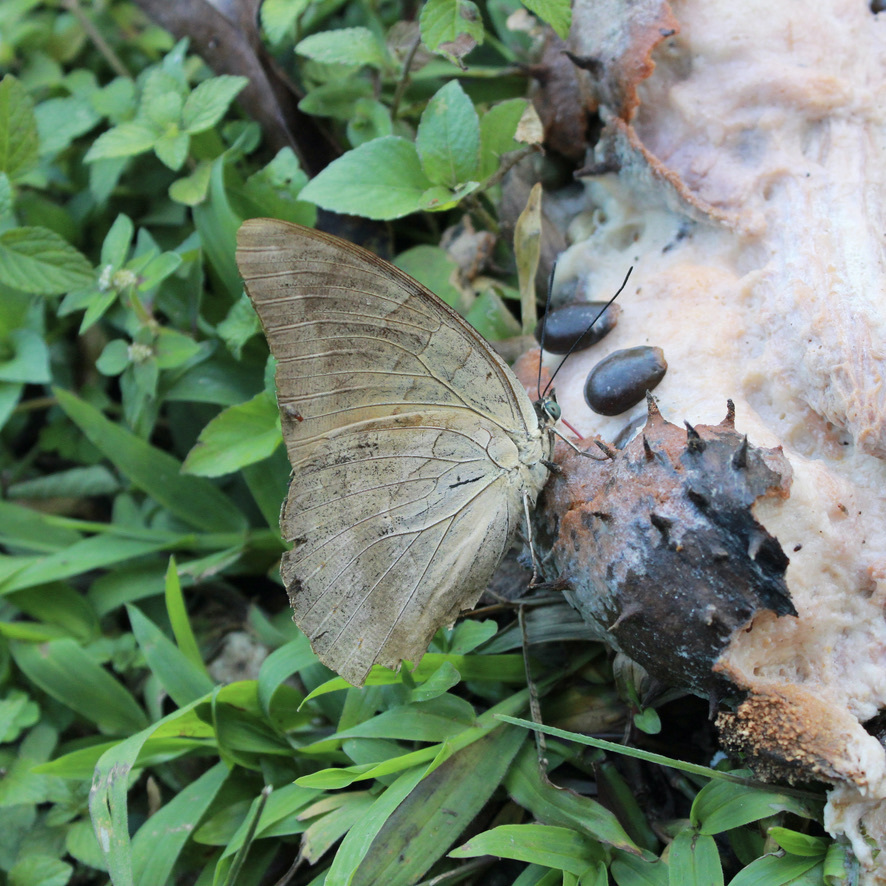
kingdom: Animalia
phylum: Arthropoda
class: Insecta
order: Lepidoptera
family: Nymphalidae
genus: Prepona
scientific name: Prepona demophon
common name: One-spotted prepona
